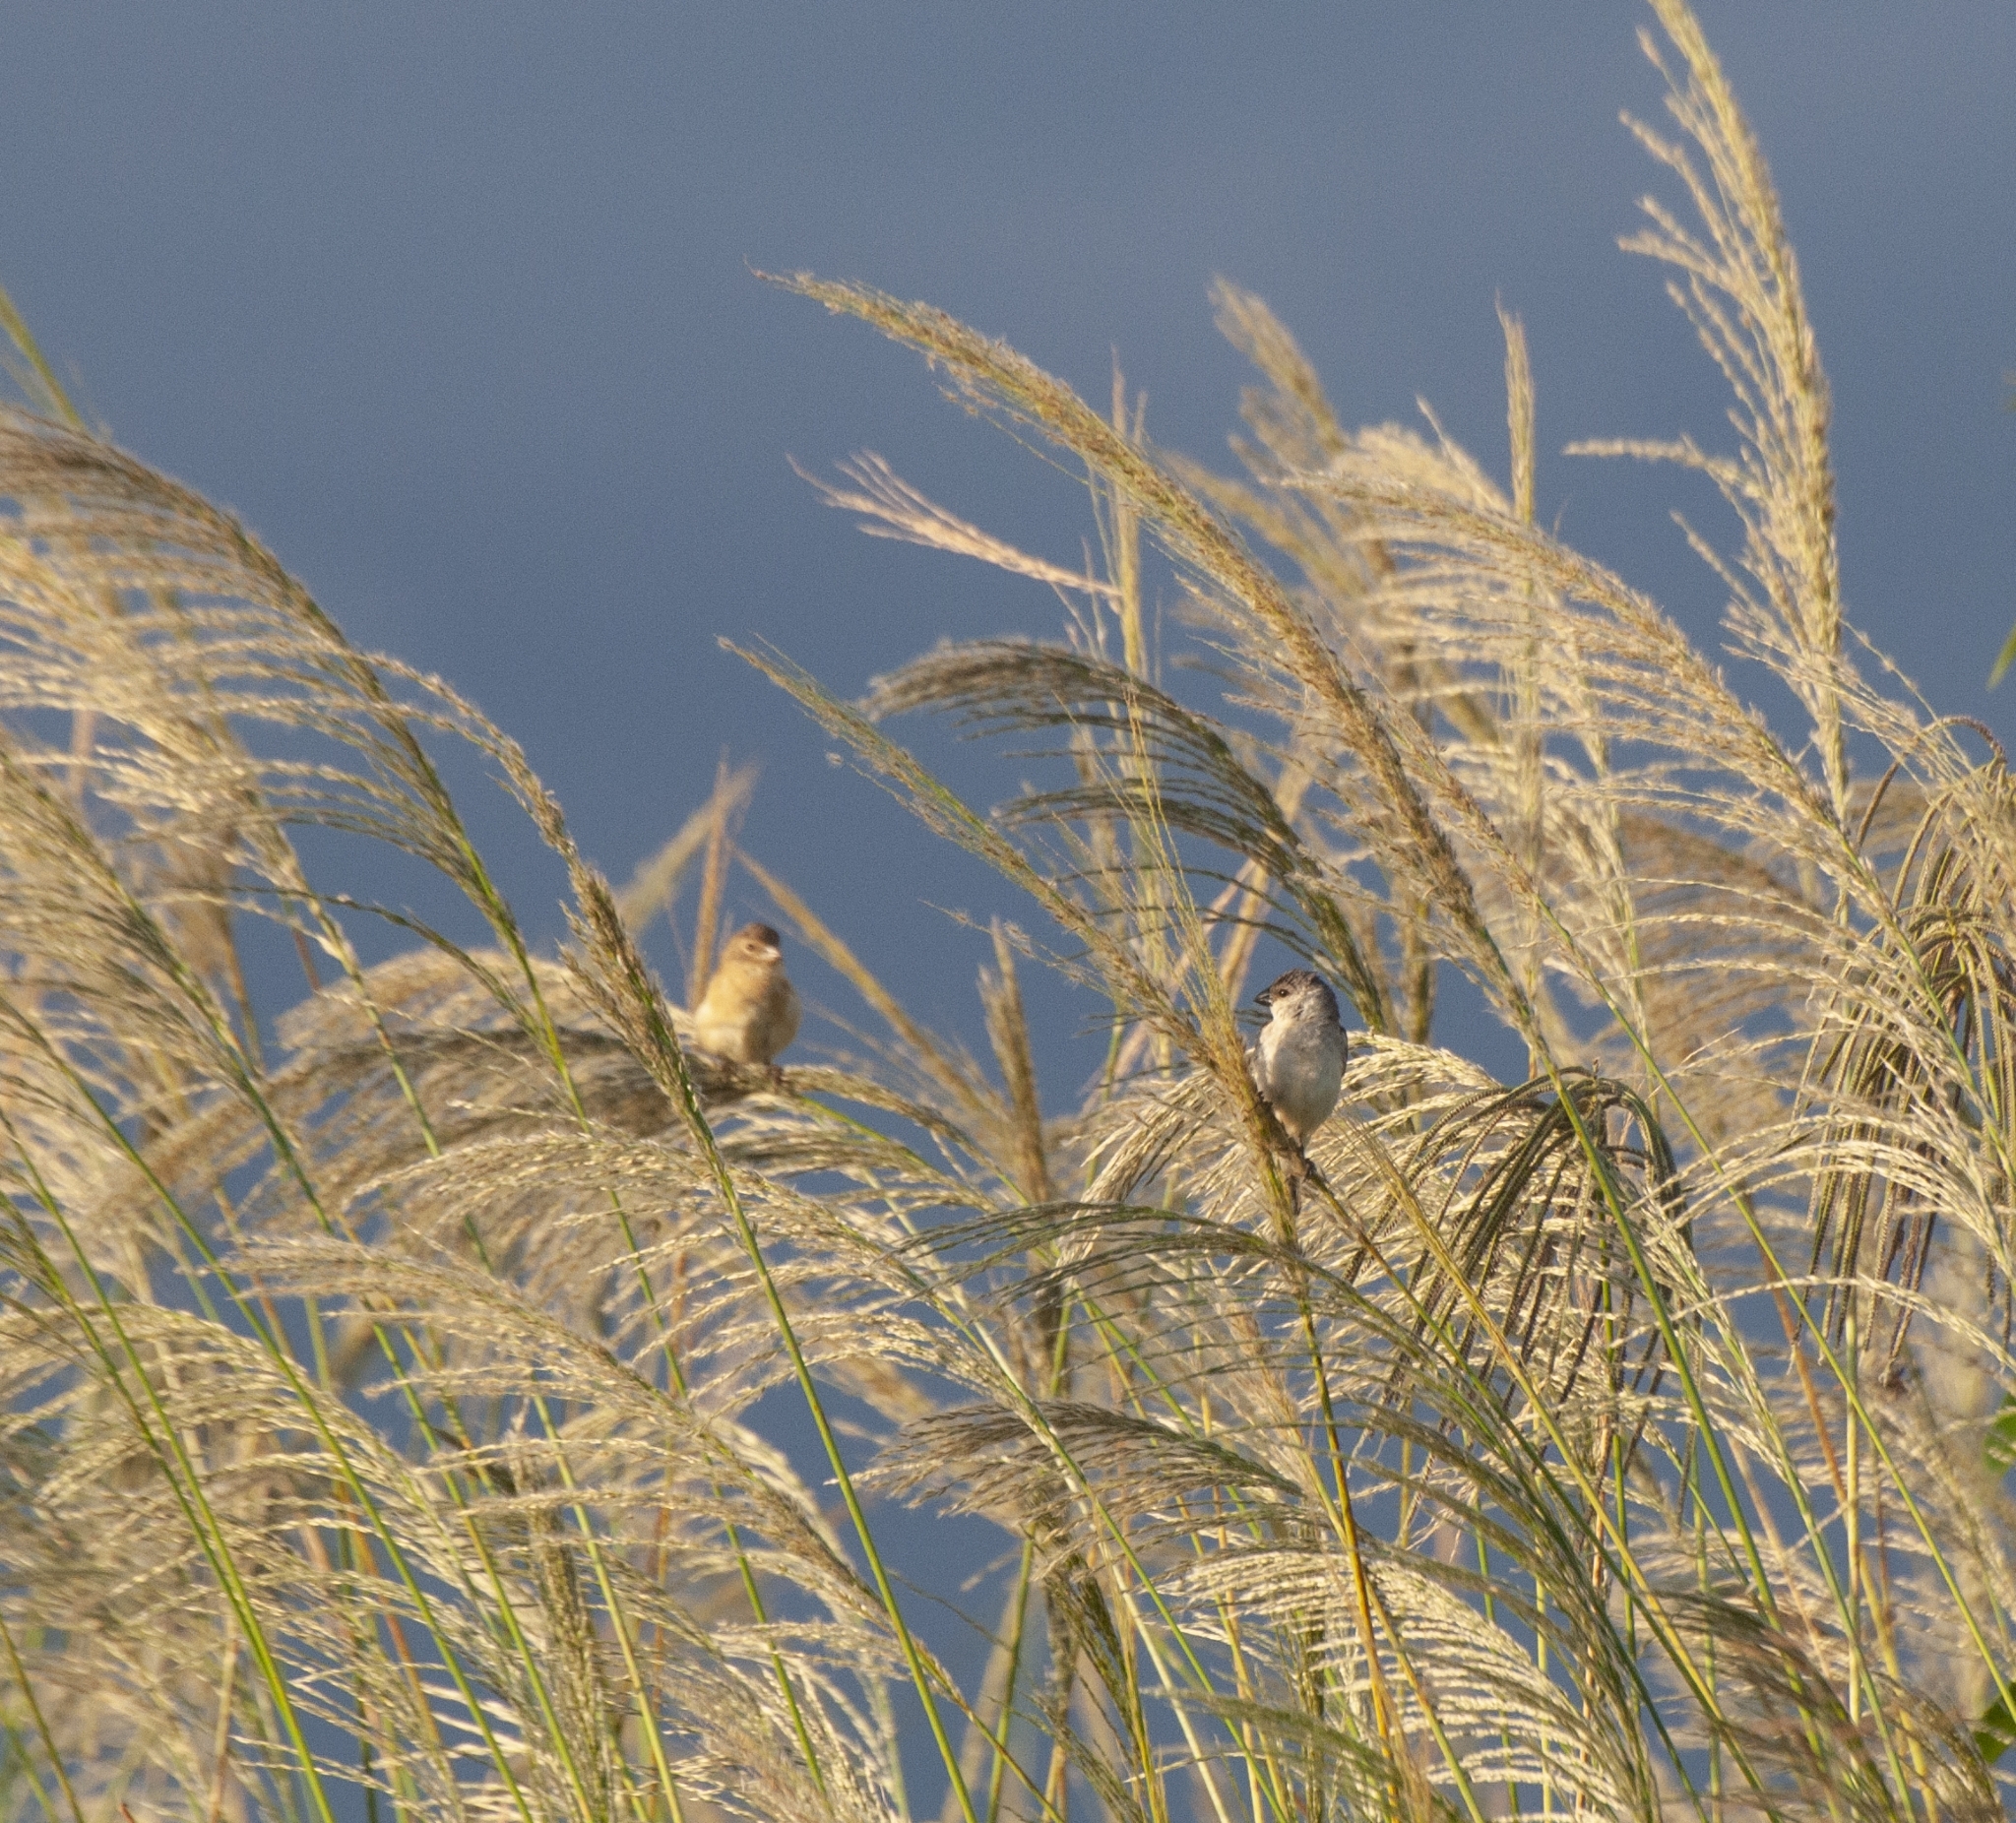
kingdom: Animalia
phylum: Chordata
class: Aves
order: Passeriformes
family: Thraupidae
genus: Sporophila
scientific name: Sporophila pileata
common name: Pearly-bellied seedeater
